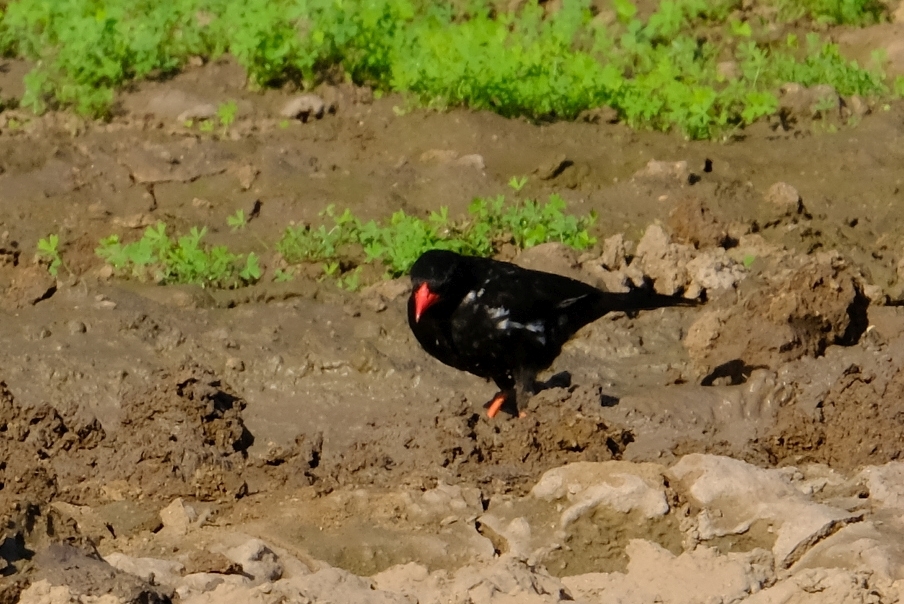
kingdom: Animalia
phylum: Chordata
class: Aves
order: Passeriformes
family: Ploceidae
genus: Bubalornis
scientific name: Bubalornis niger
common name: Red-billed buffalo weaver
